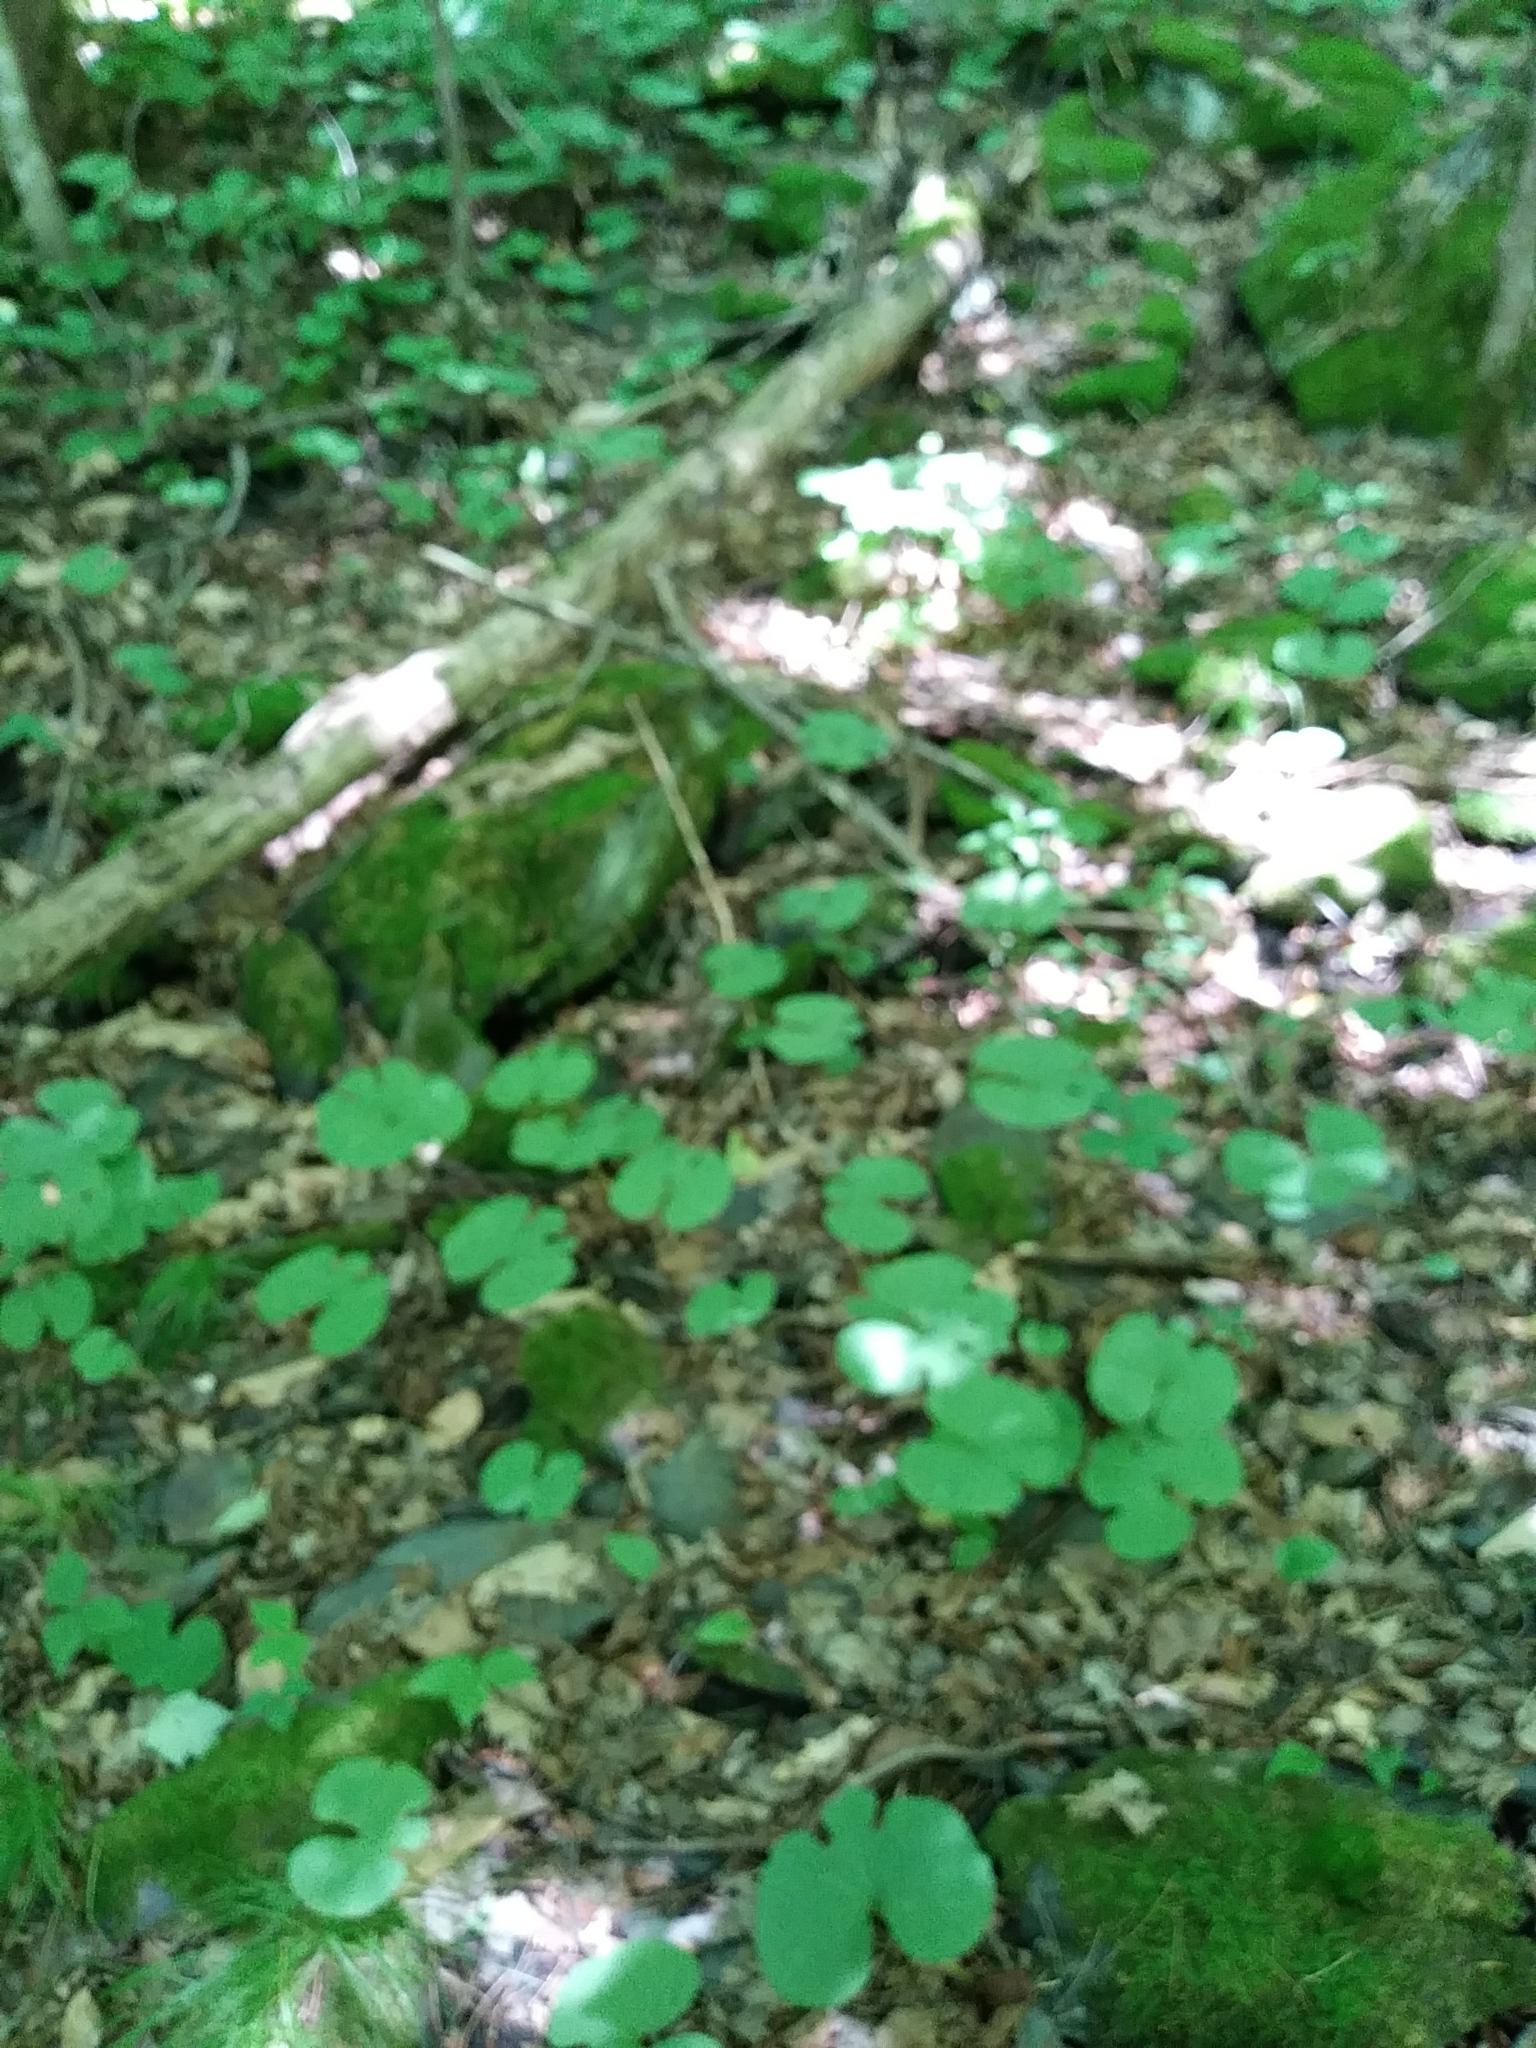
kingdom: Plantae
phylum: Tracheophyta
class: Magnoliopsida
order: Ranunculales
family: Papaveraceae
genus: Sanguinaria
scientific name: Sanguinaria canadensis
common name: Bloodroot
